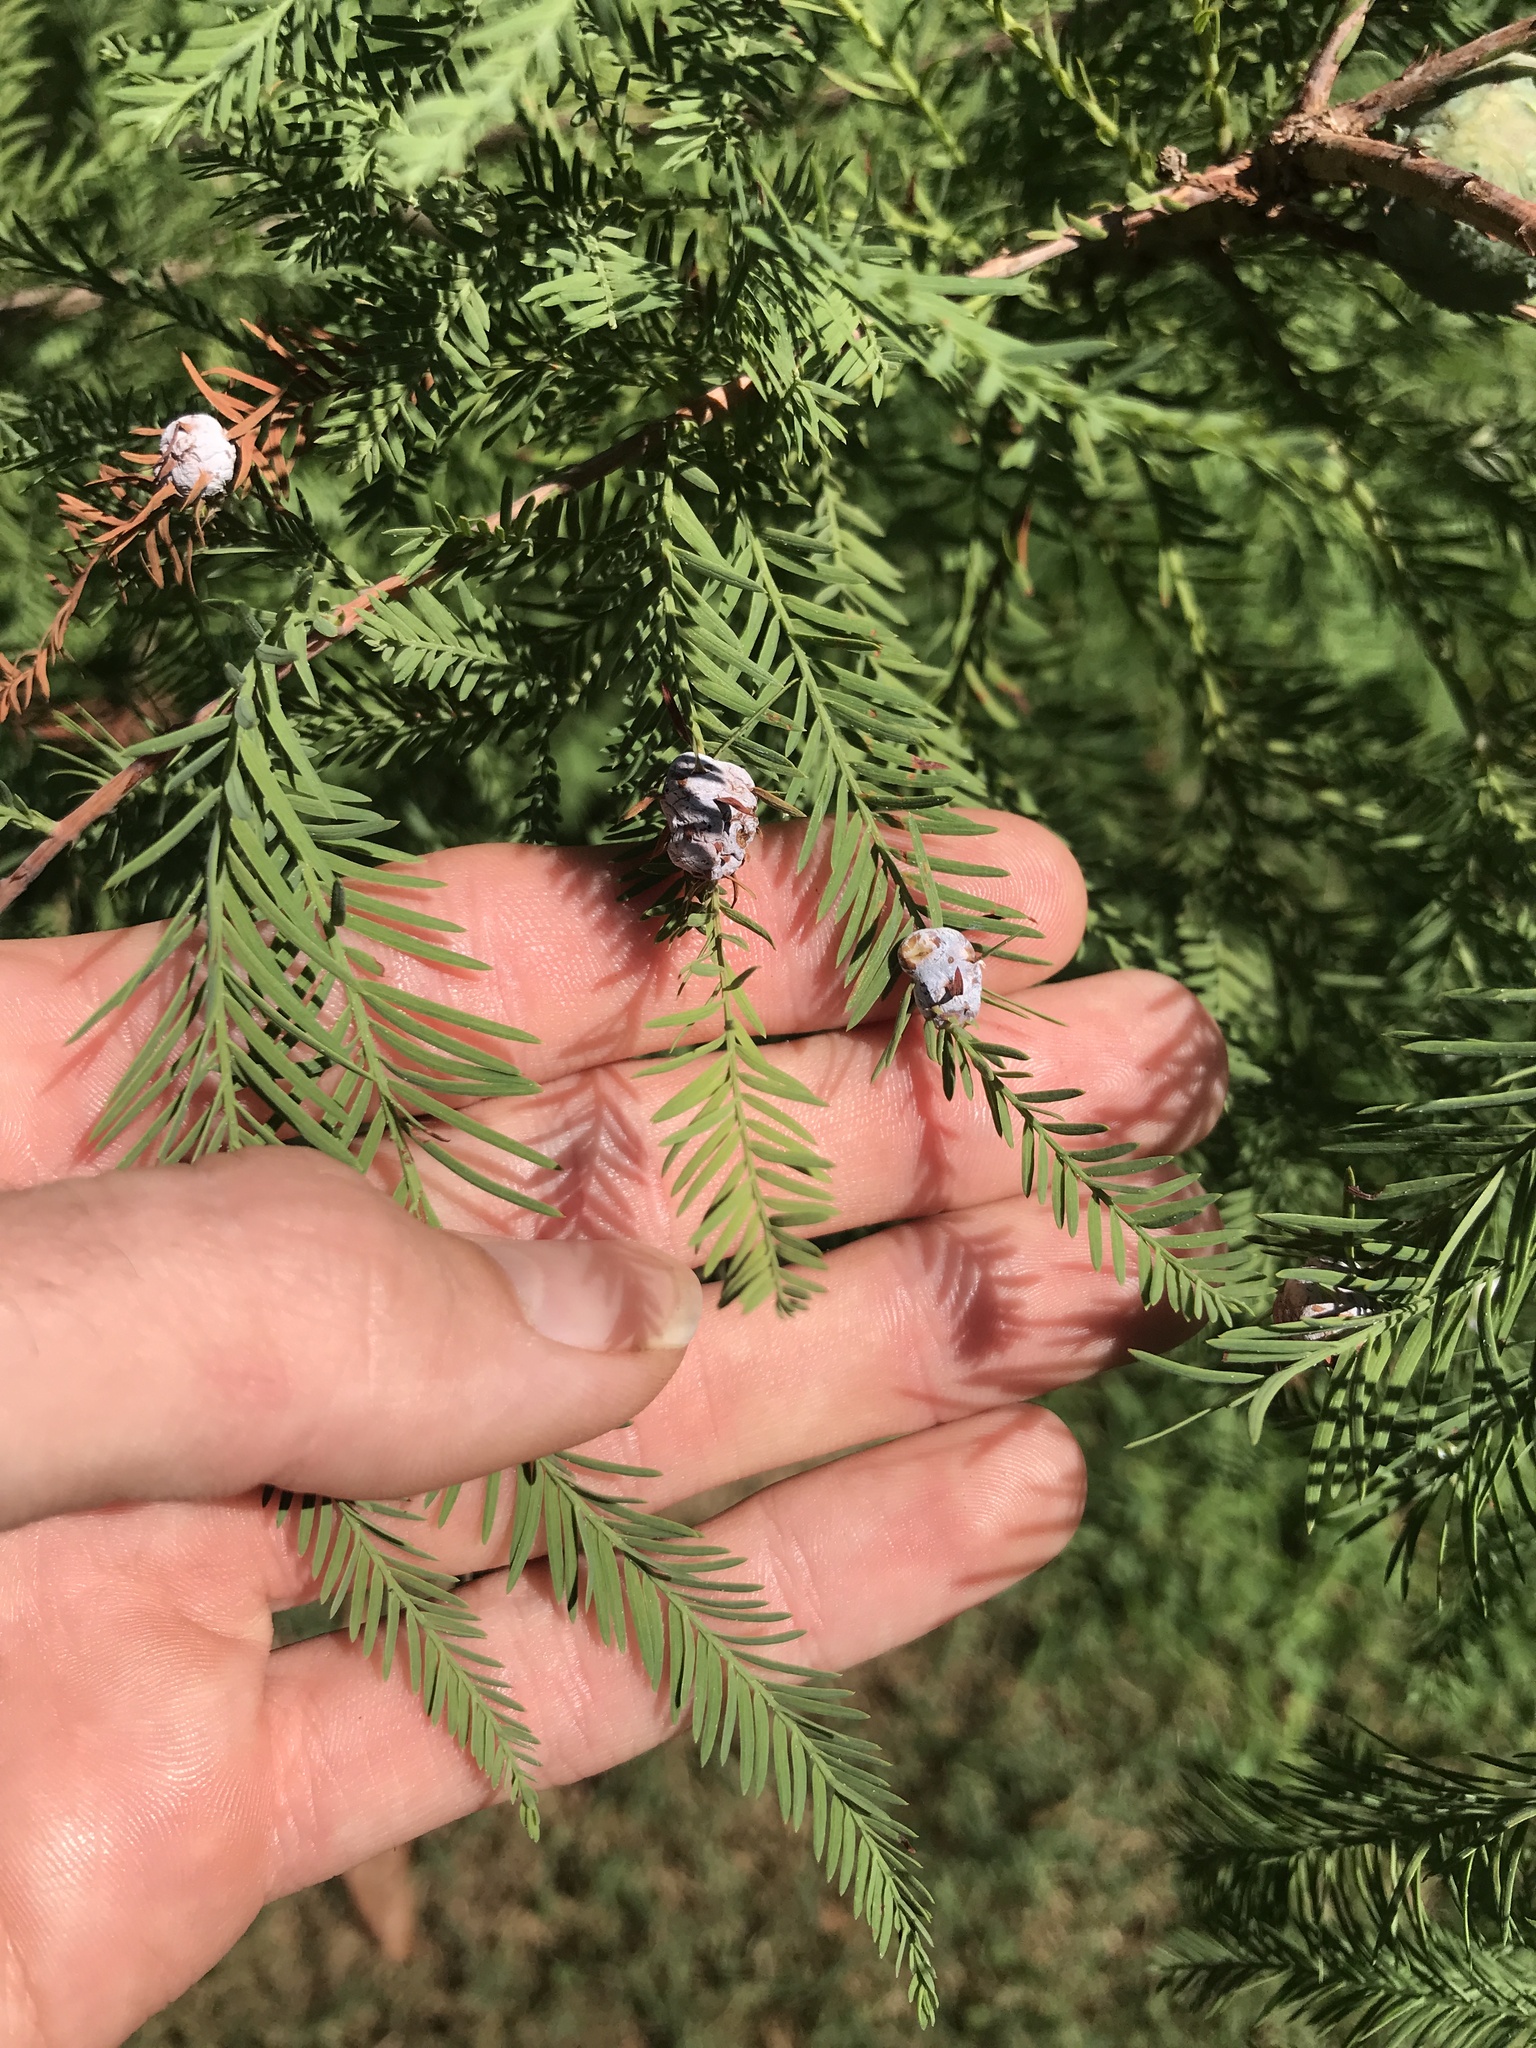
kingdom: Animalia
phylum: Arthropoda
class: Insecta
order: Diptera
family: Cecidomyiidae
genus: Taxodiomyia
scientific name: Taxodiomyia cupressiananassa
